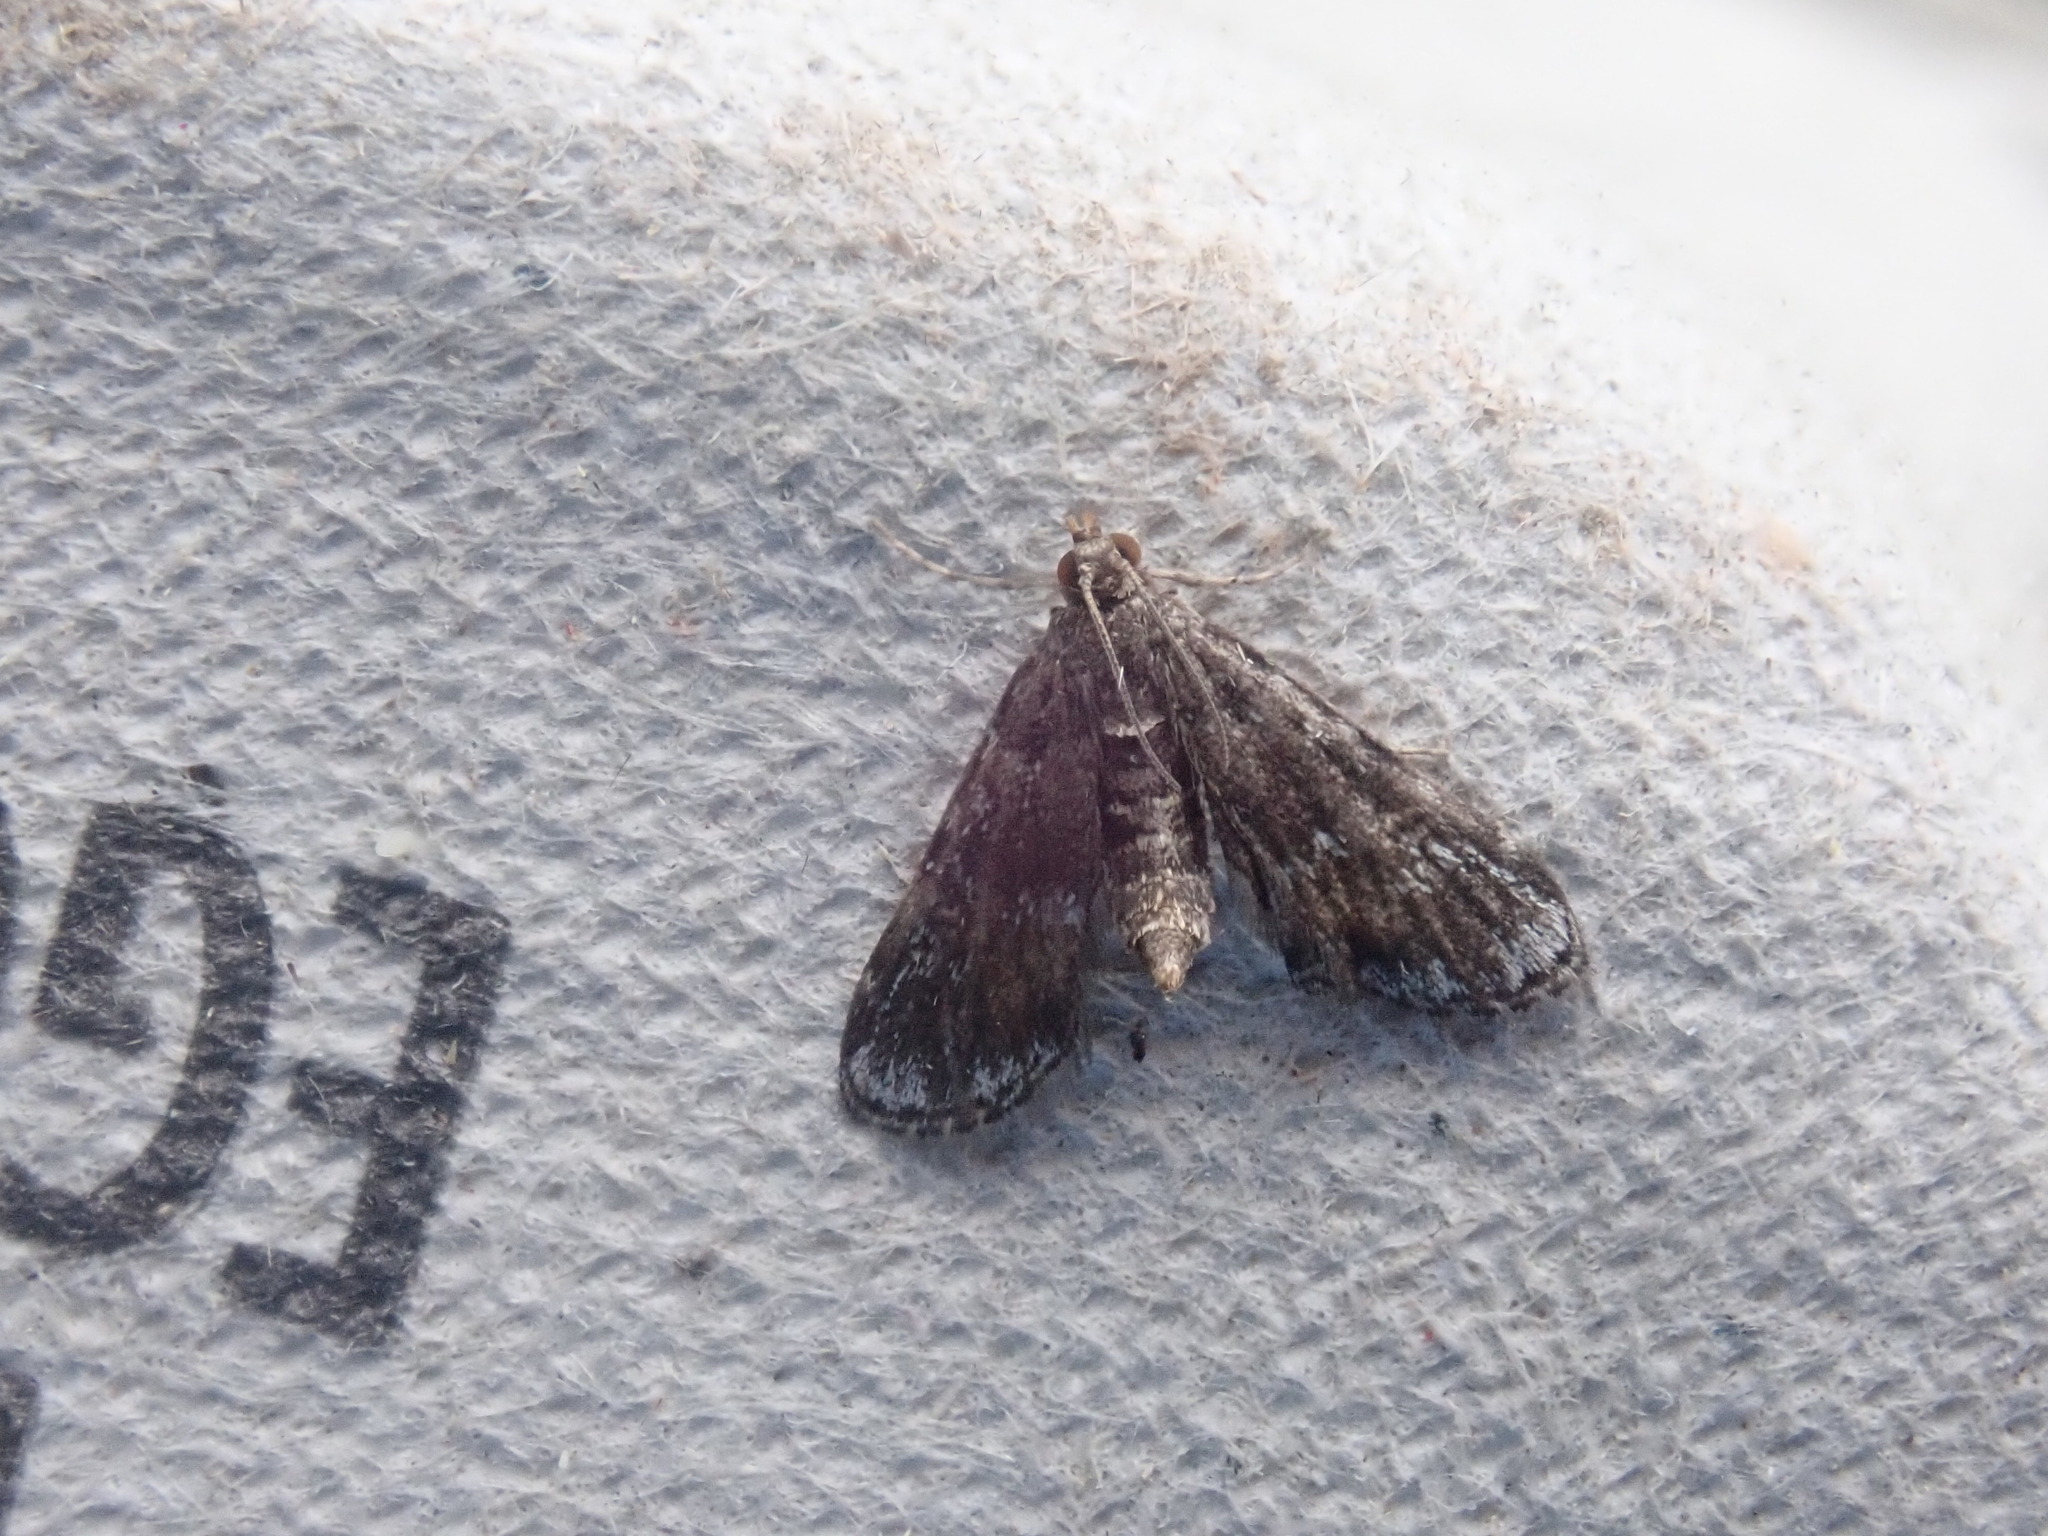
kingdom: Animalia
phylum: Arthropoda
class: Insecta
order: Lepidoptera
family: Crambidae
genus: Elophila
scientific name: Elophila tinealis
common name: Black duckweed moth
